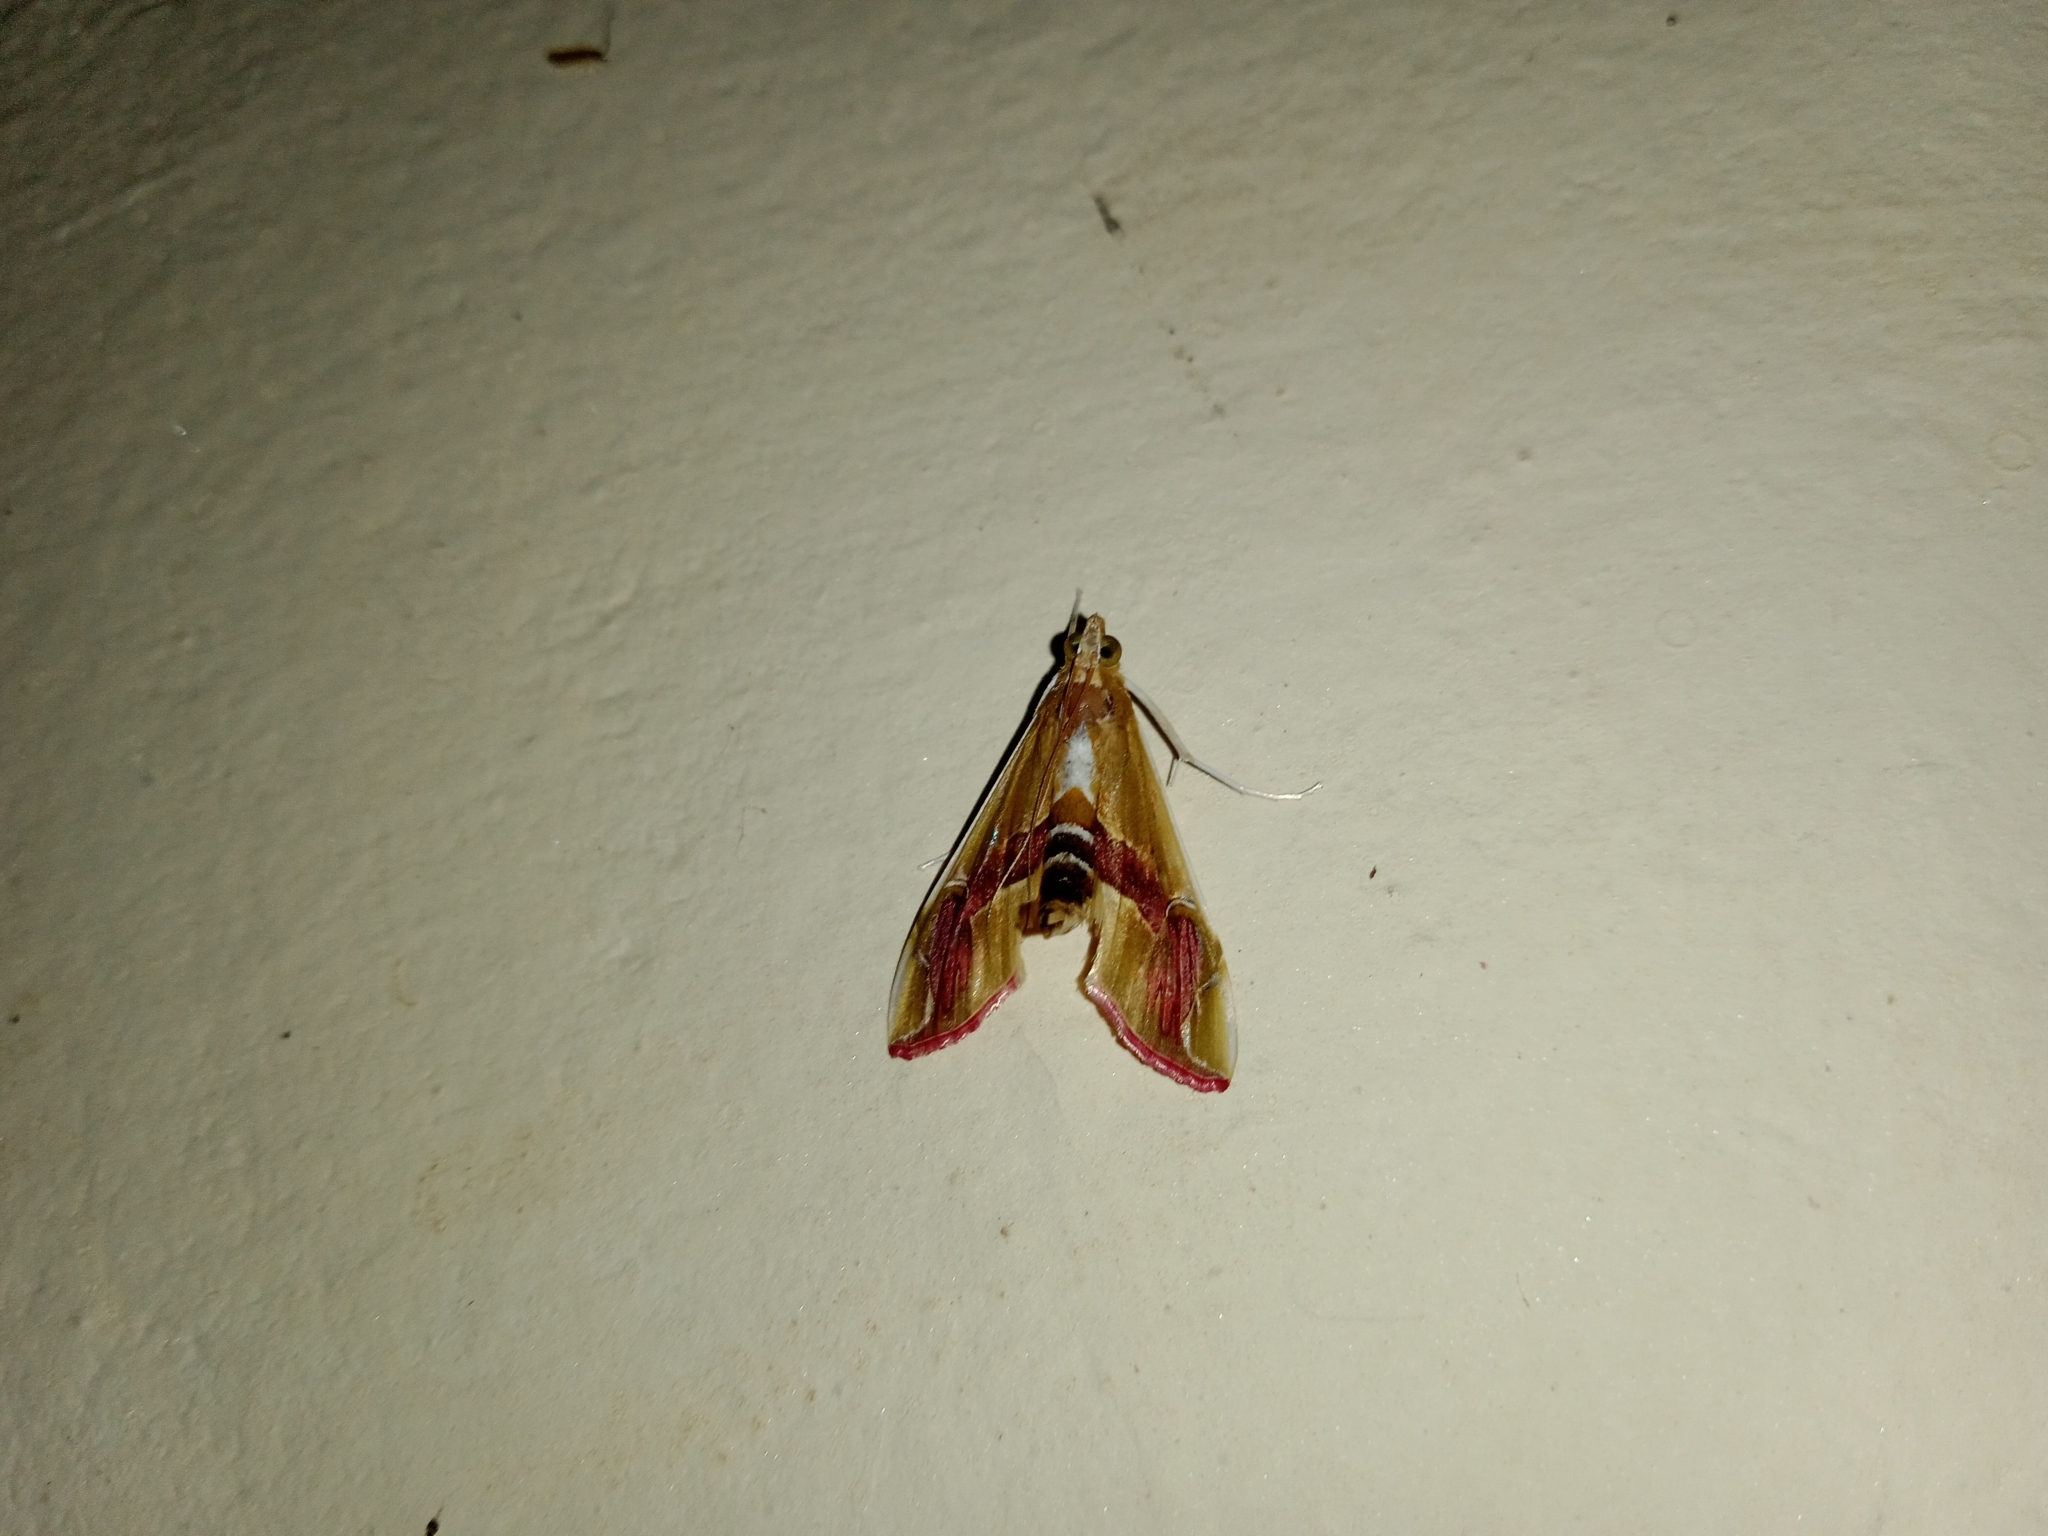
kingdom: Animalia
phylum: Arthropoda
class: Insecta
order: Lepidoptera
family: Crambidae
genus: Agathodes
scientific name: Agathodes ostentalis
